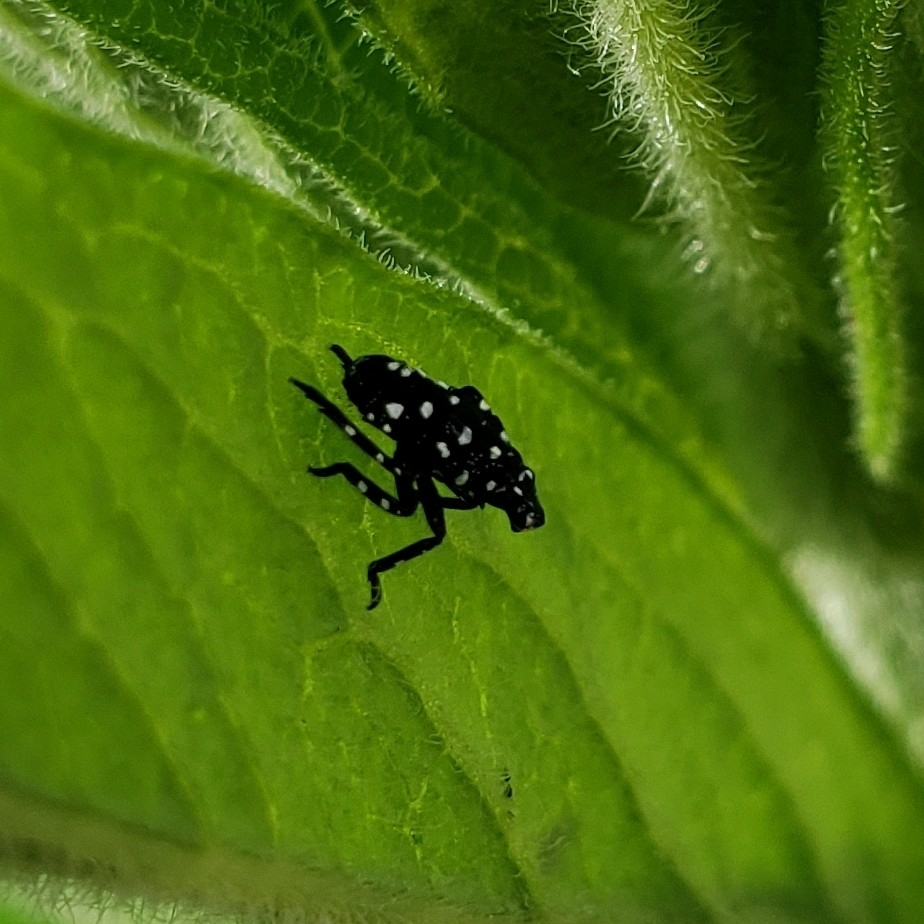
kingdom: Animalia
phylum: Arthropoda
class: Insecta
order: Hemiptera
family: Fulgoridae
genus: Lycorma
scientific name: Lycorma delicatula
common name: Spotted lanternfly
